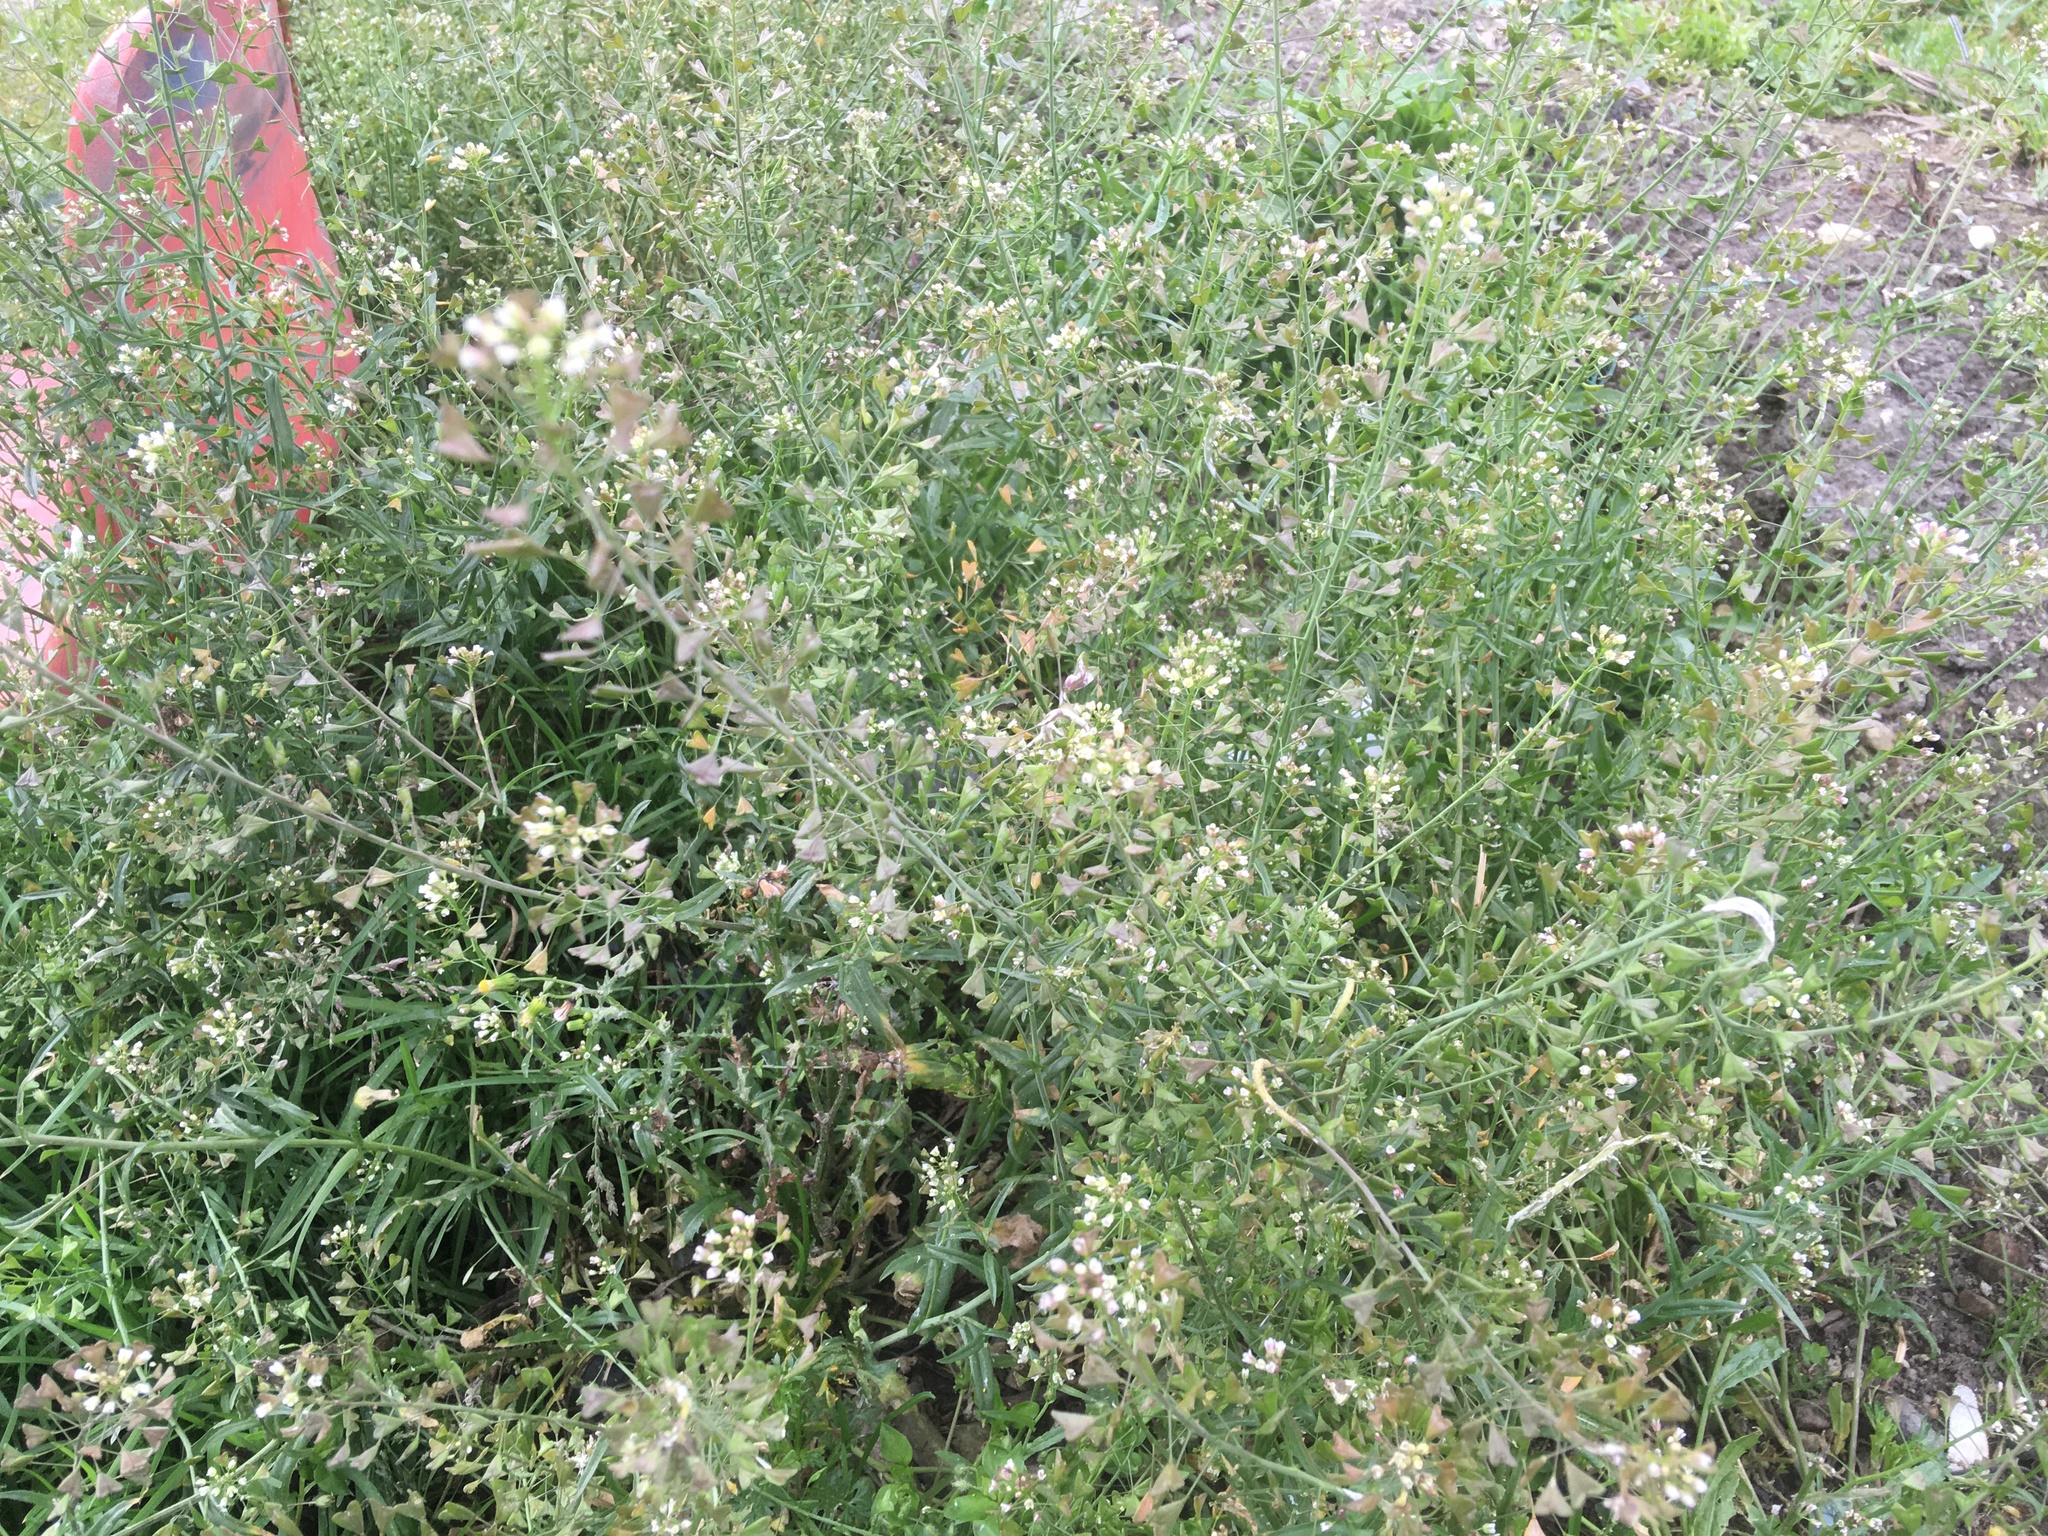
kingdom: Plantae
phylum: Tracheophyta
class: Magnoliopsida
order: Brassicales
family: Brassicaceae
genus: Capsella
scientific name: Capsella bursa-pastoris
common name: Shepherd's purse
